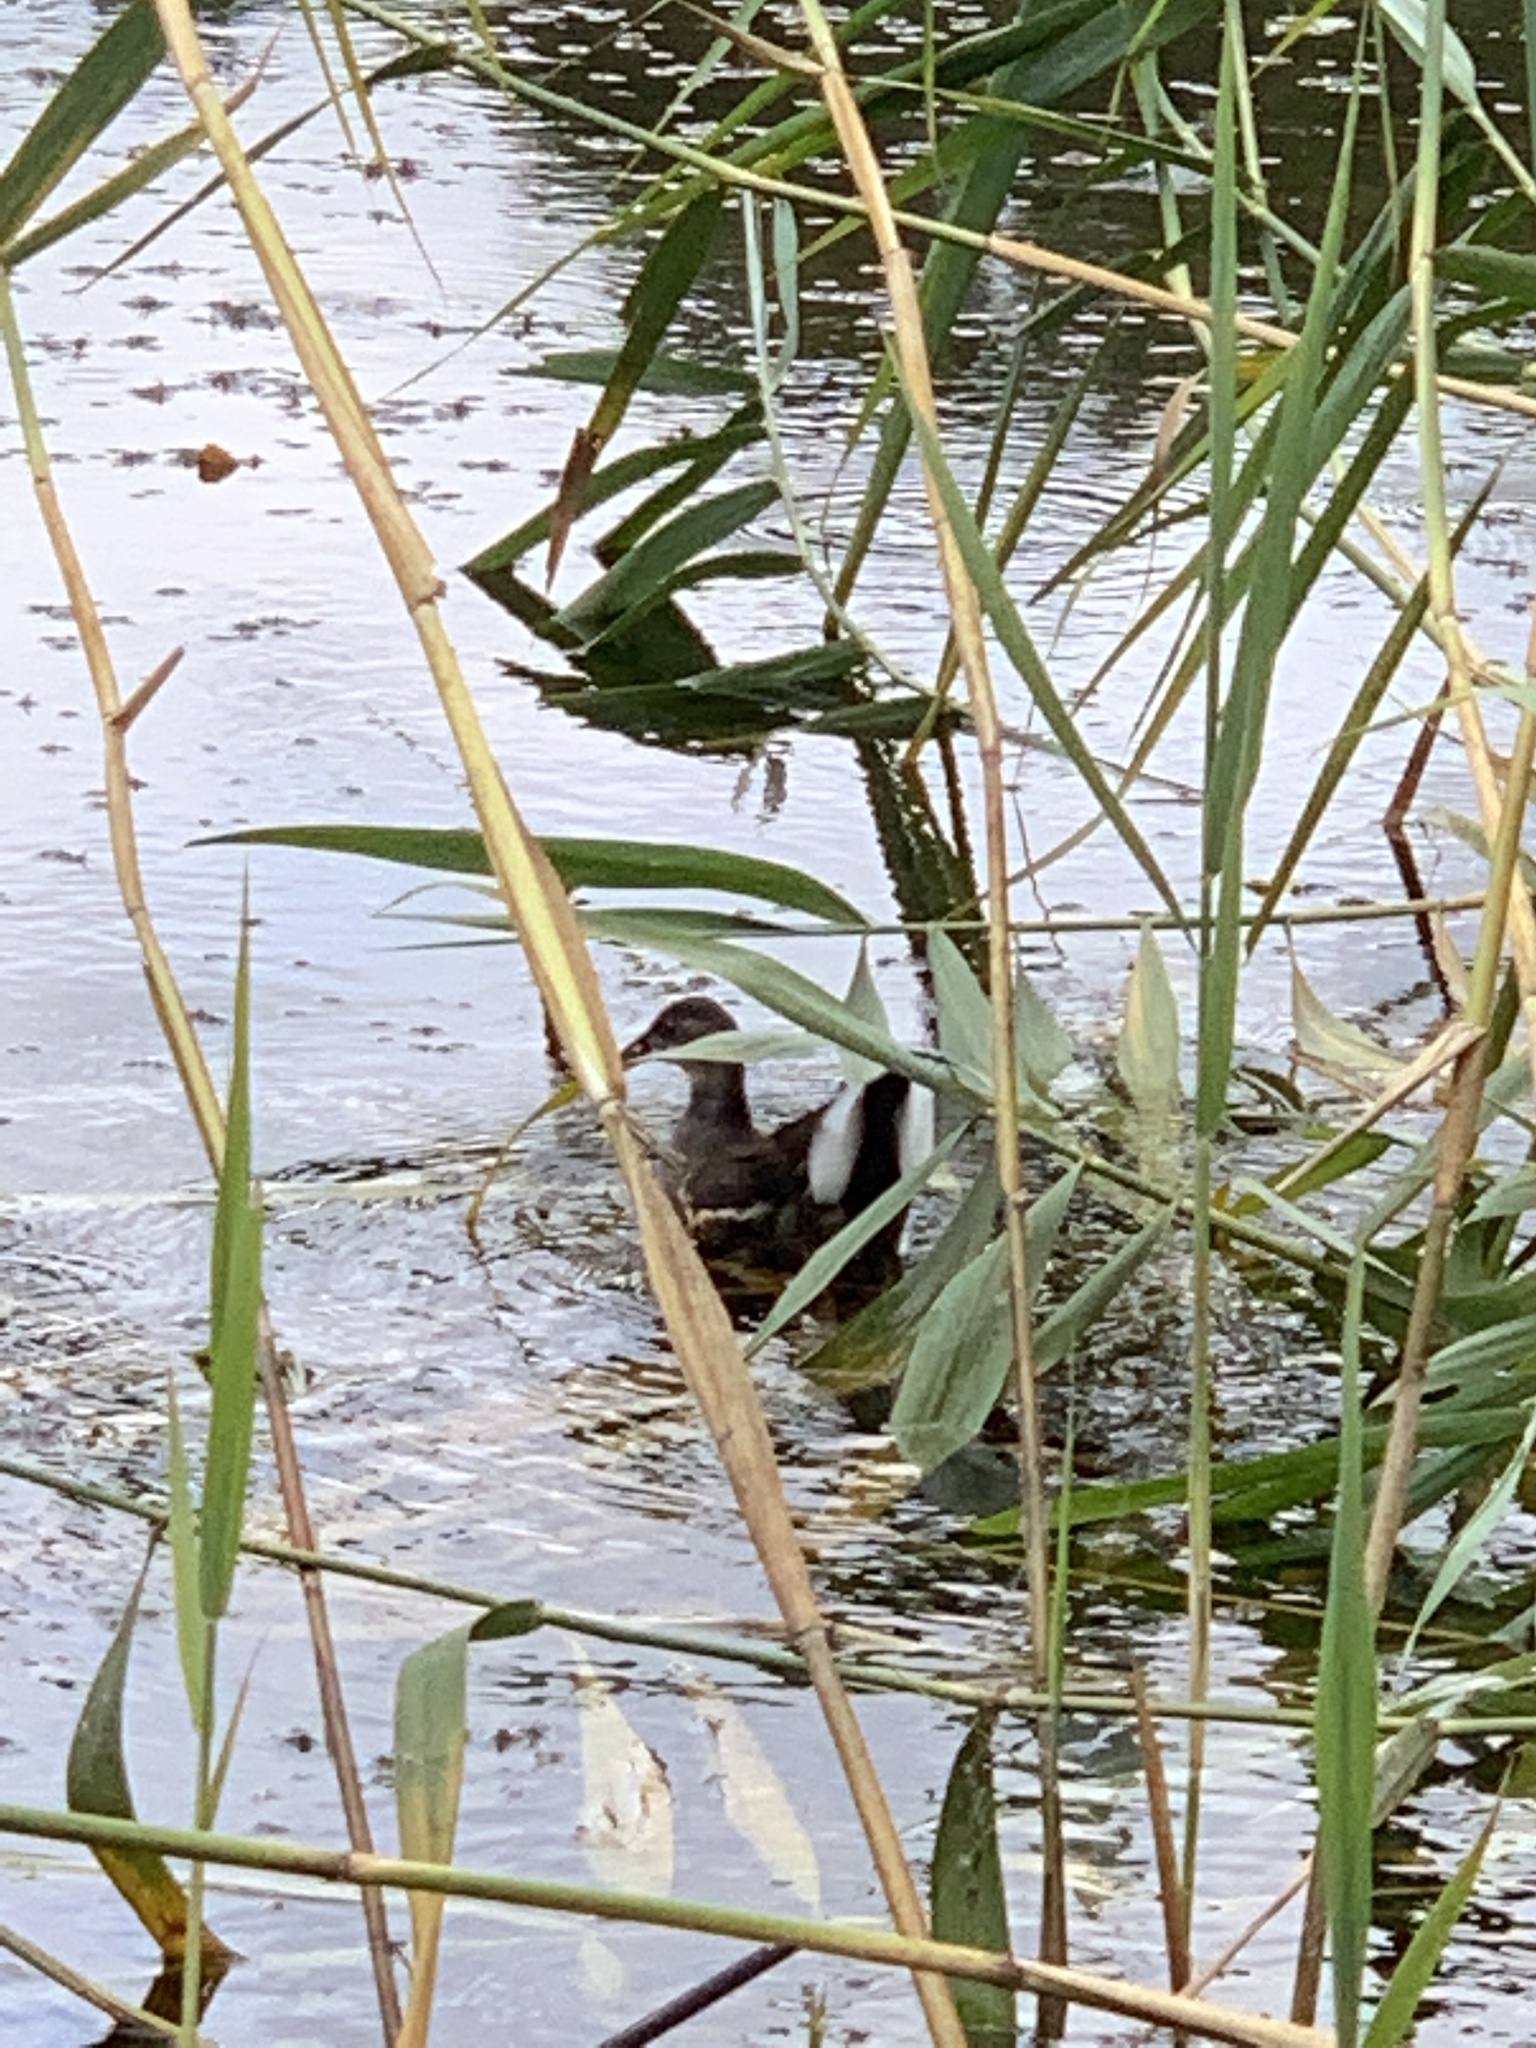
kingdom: Animalia
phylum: Chordata
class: Aves
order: Gruiformes
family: Rallidae
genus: Gallinula
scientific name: Gallinula chloropus
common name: Common moorhen
